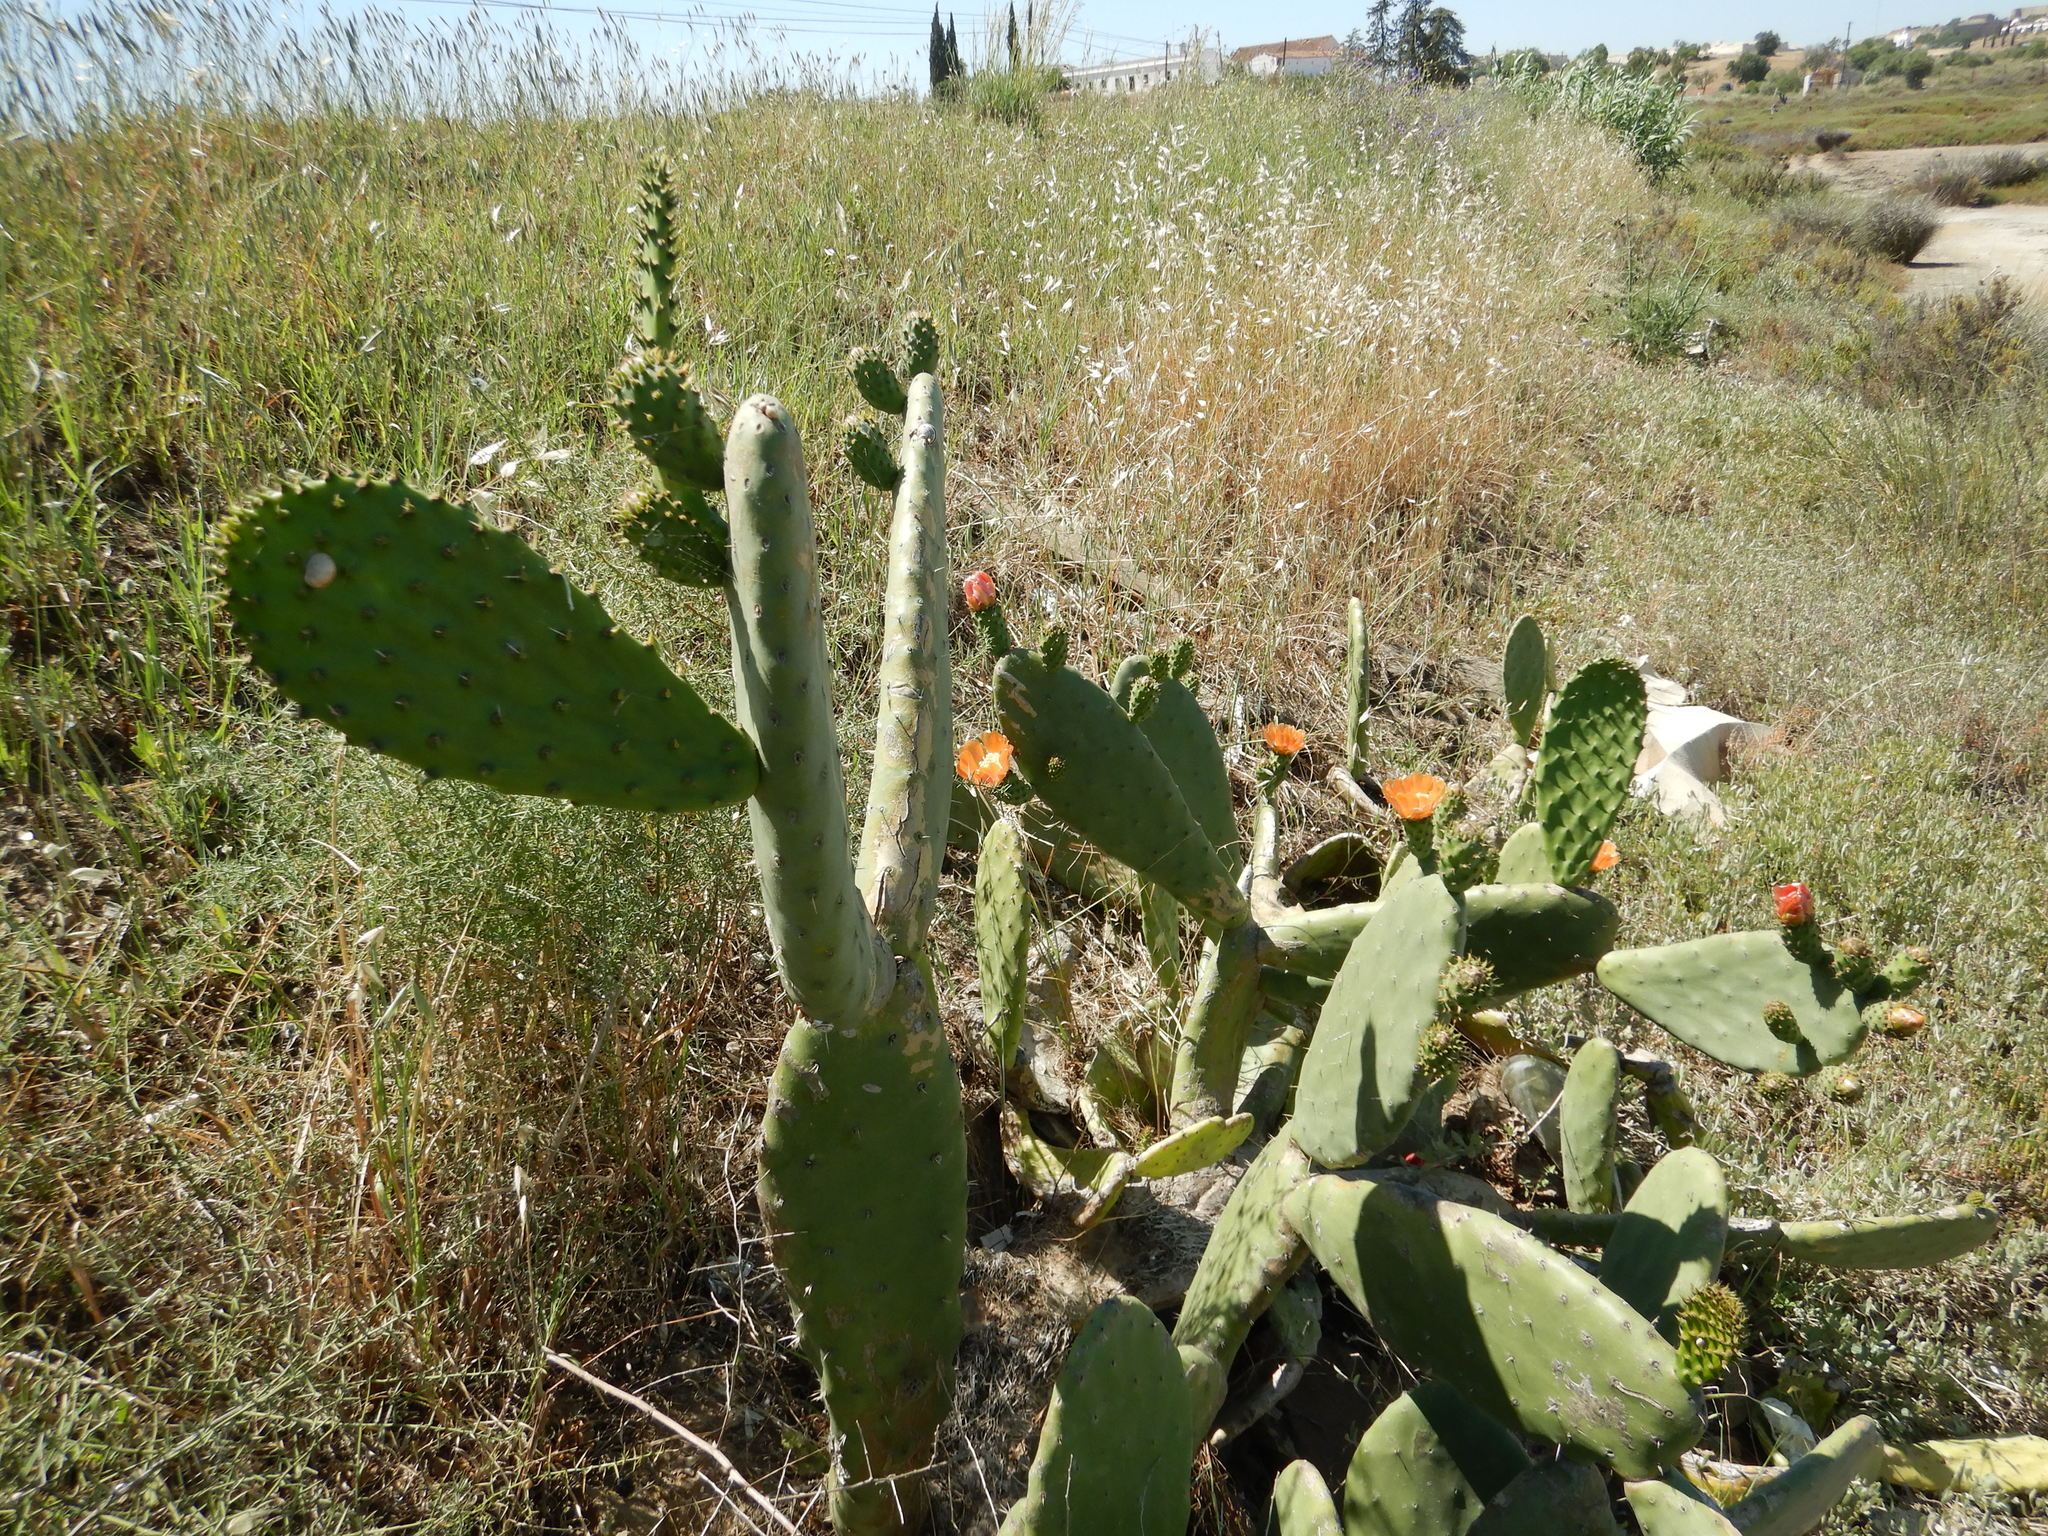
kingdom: Plantae
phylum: Tracheophyta
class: Magnoliopsida
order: Caryophyllales
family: Cactaceae
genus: Opuntia
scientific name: Opuntia ficus-indica
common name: Barbary fig
